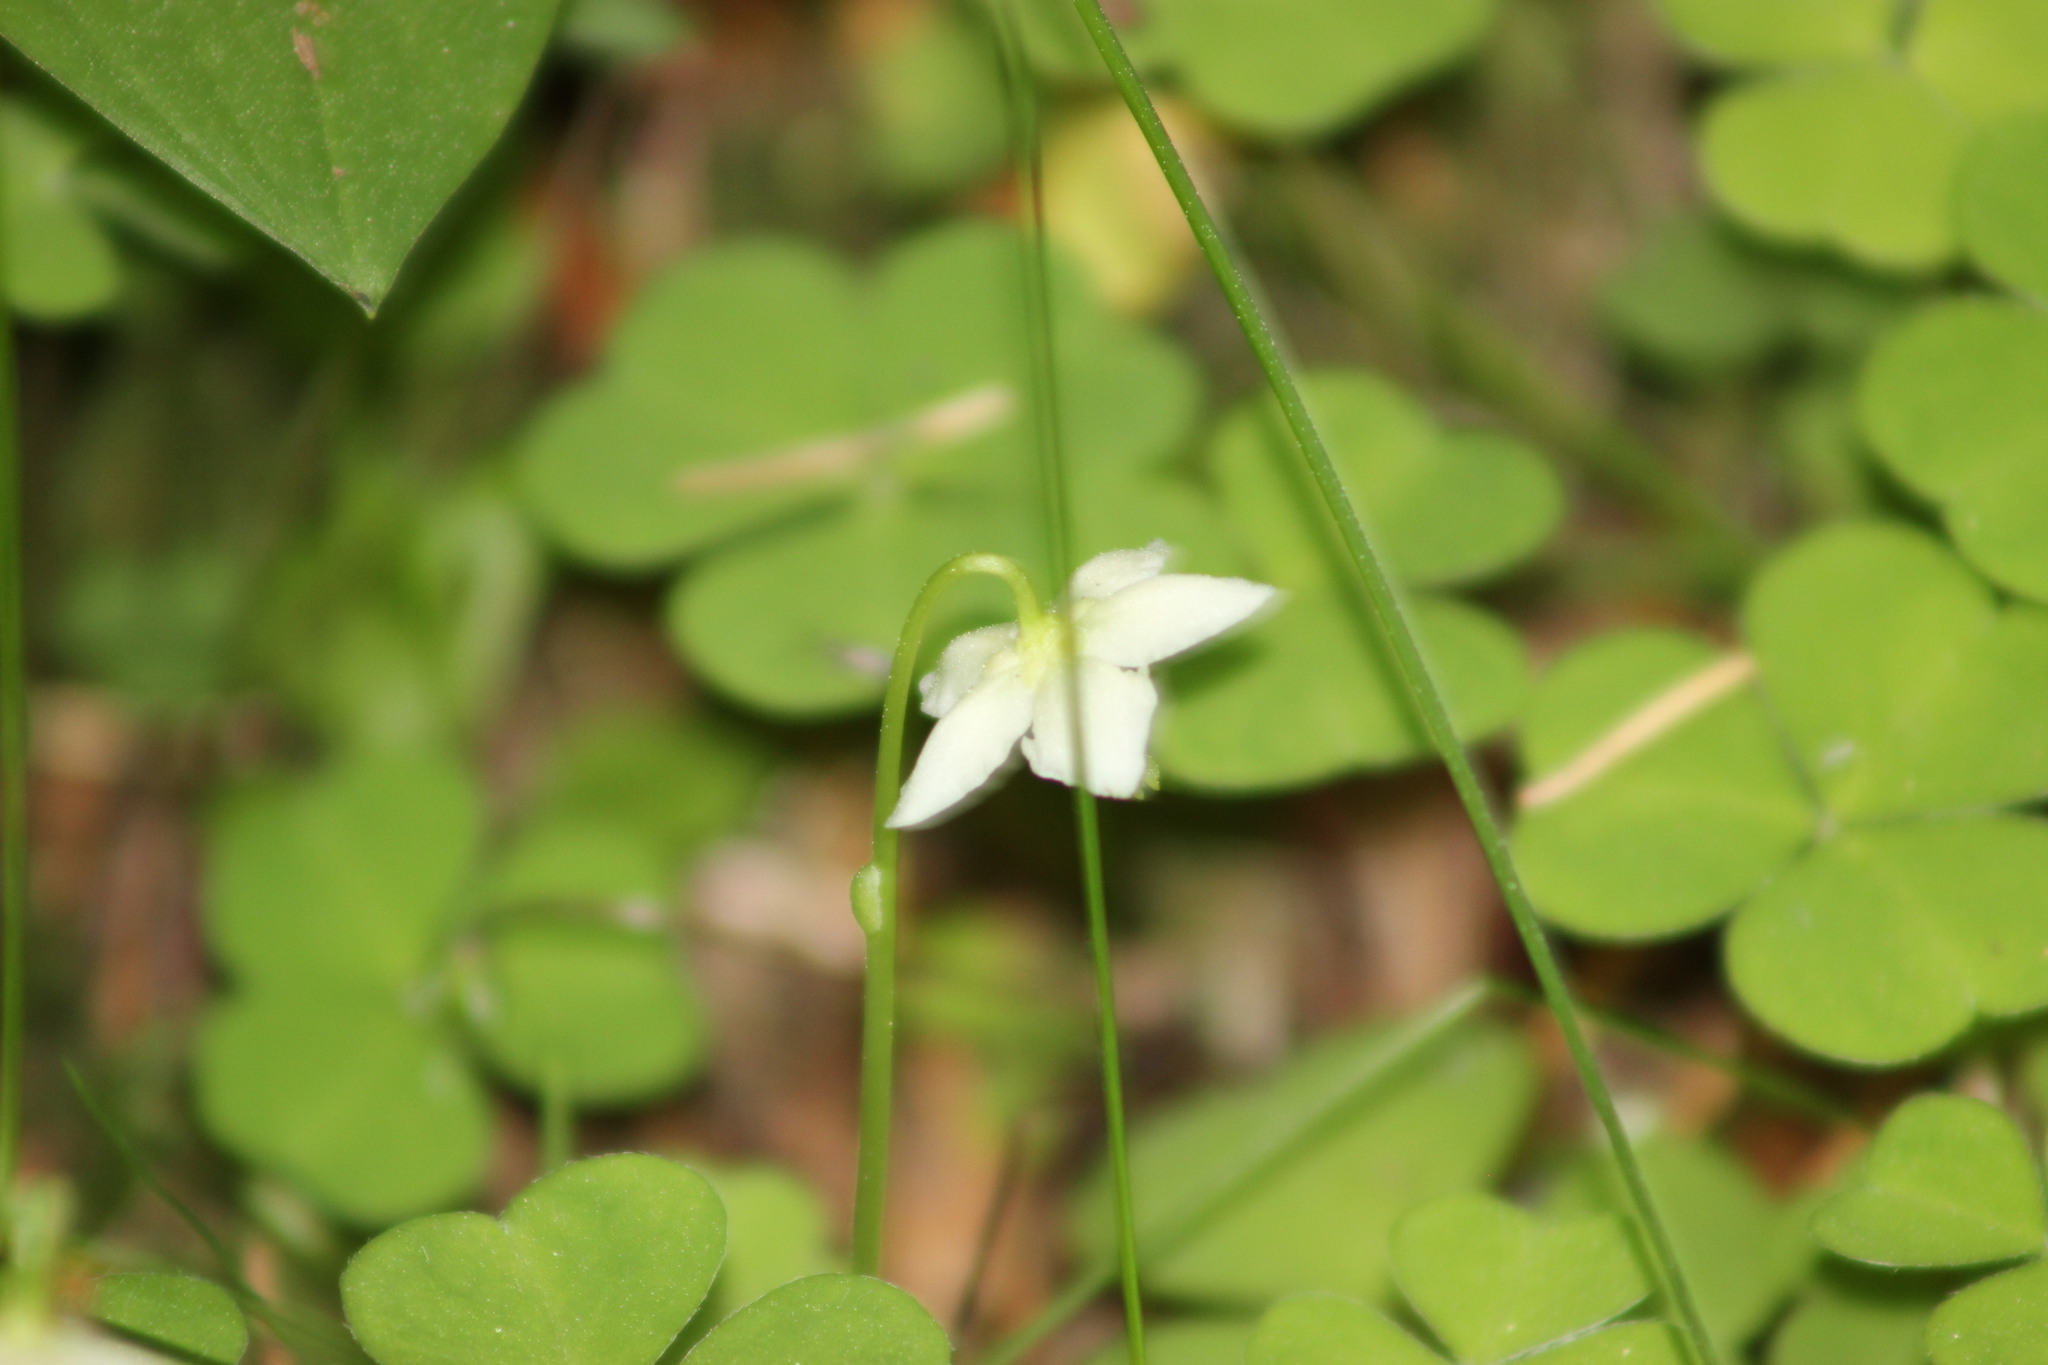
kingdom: Plantae
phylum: Tracheophyta
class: Magnoliopsida
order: Ericales
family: Ericaceae
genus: Moneses
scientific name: Moneses uniflora
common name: One-flowered wintergreen
